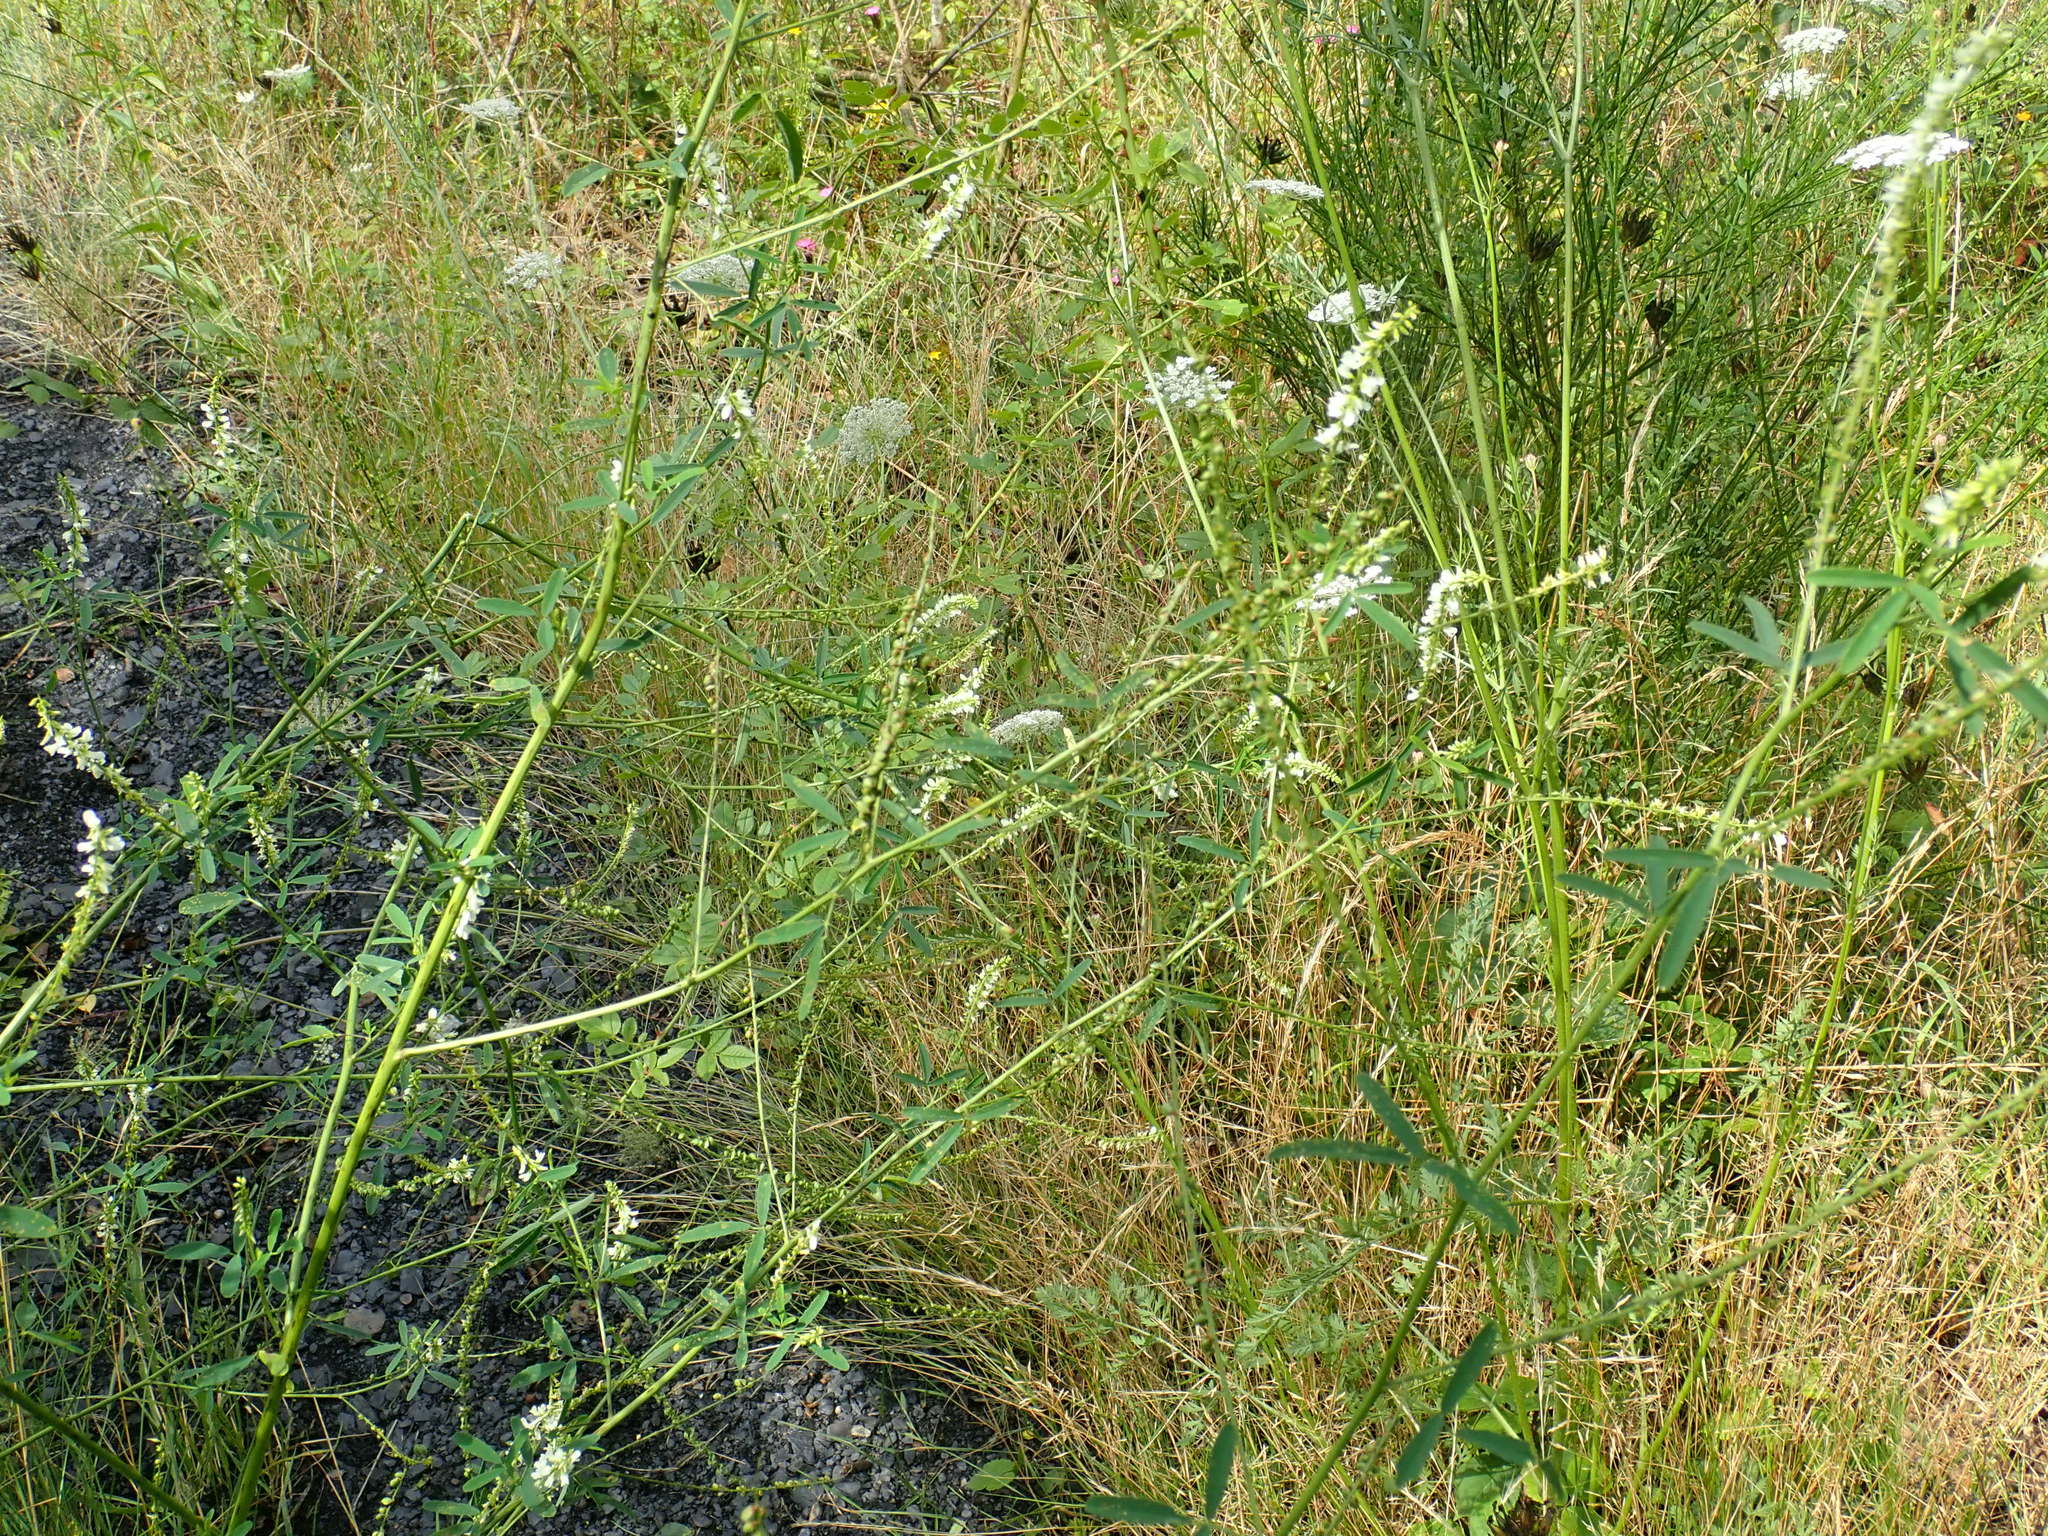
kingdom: Plantae
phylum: Tracheophyta
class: Magnoliopsida
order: Fabales
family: Fabaceae
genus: Melilotus
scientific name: Melilotus albus
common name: White melilot
